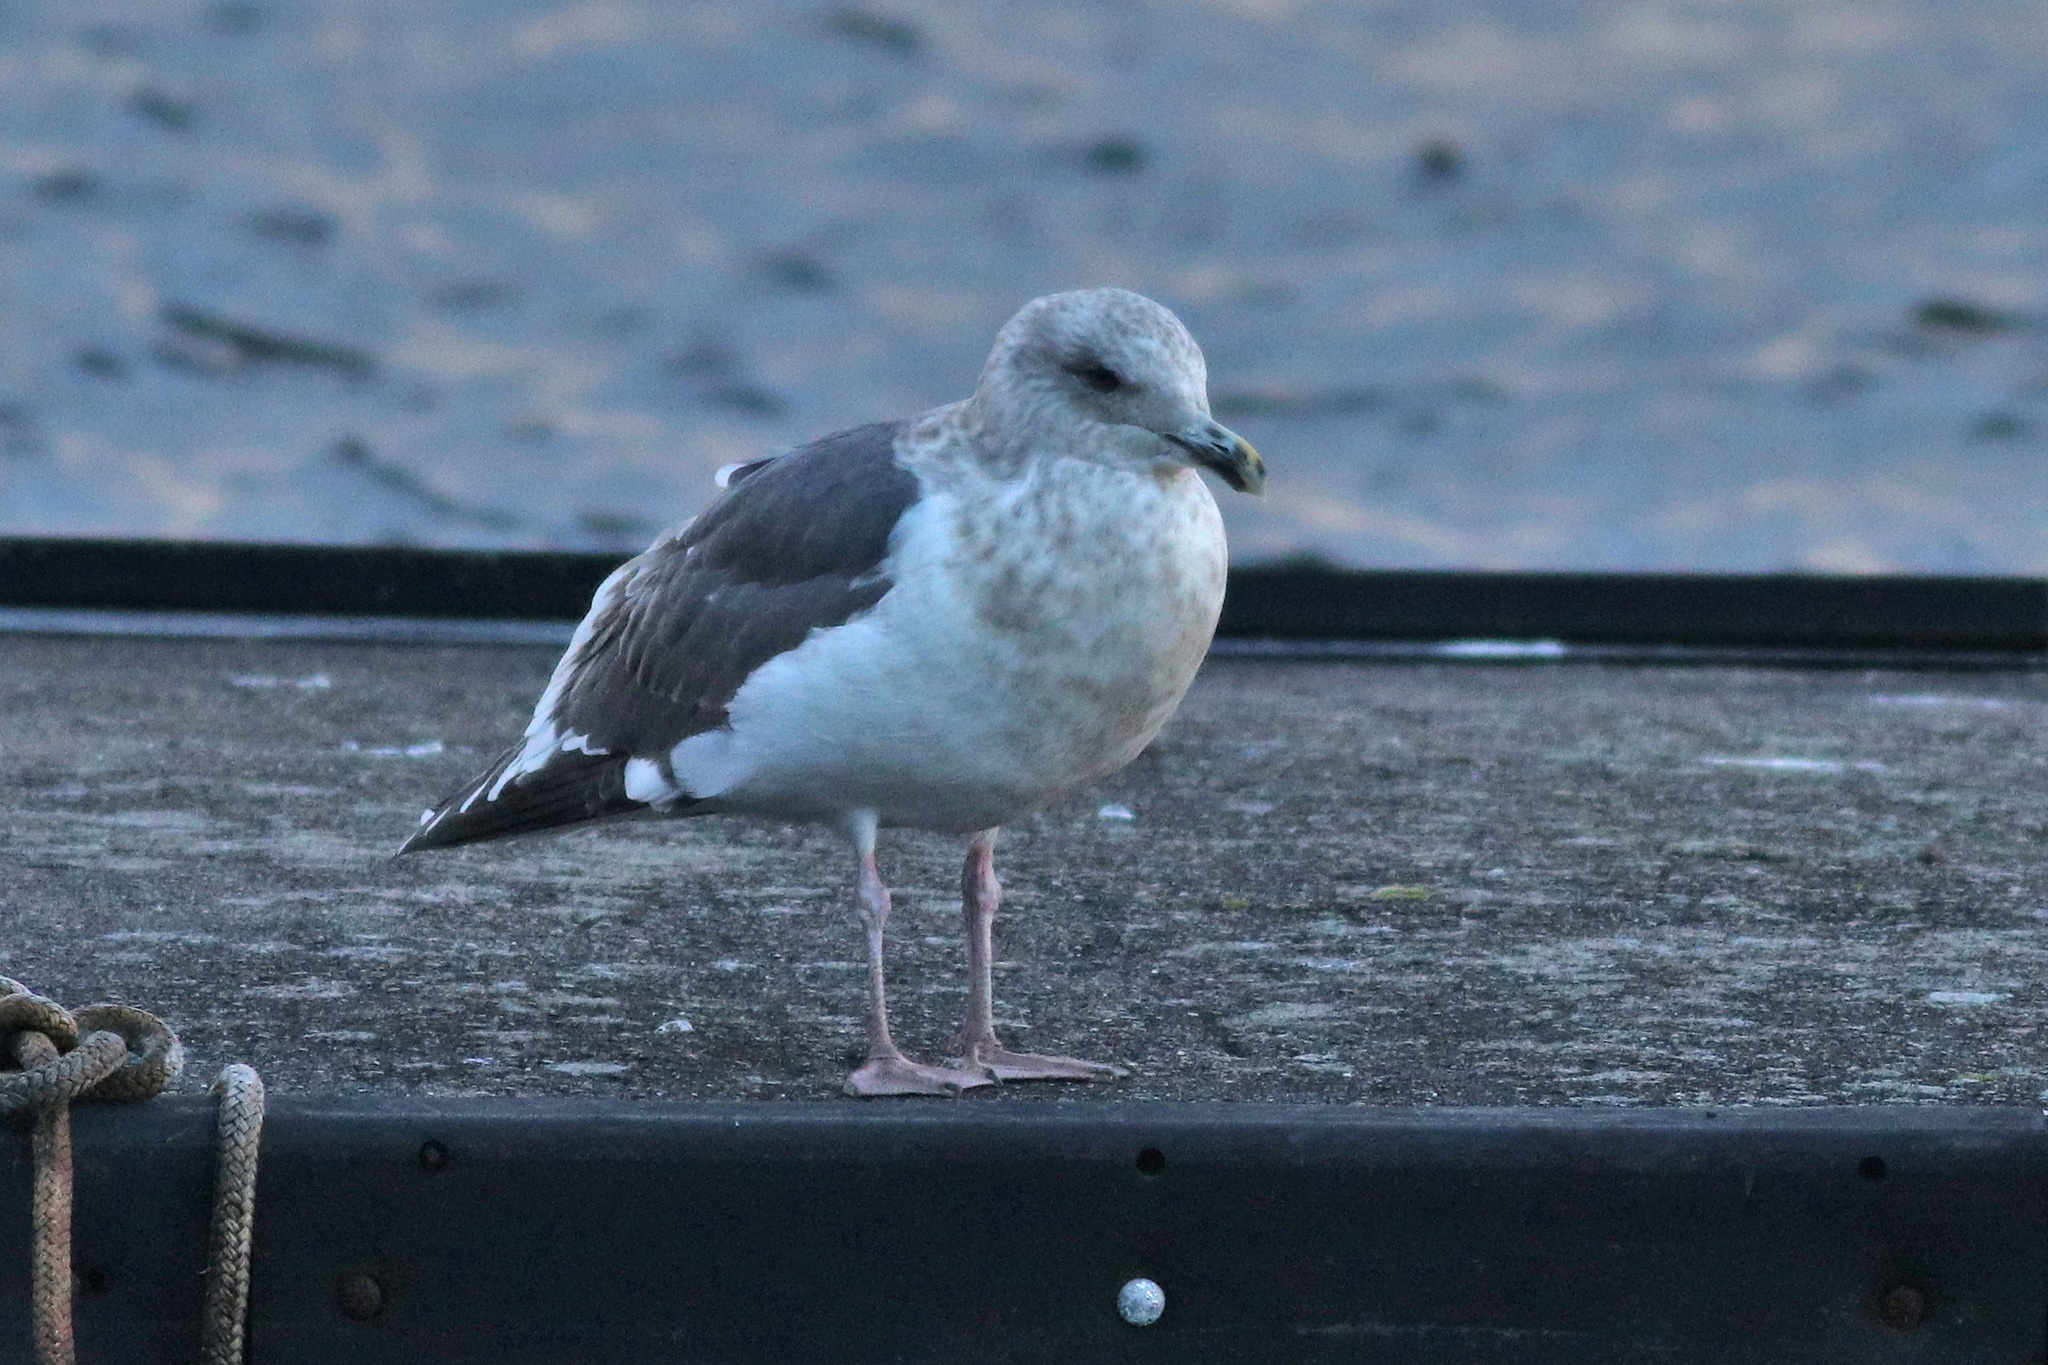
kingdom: Animalia
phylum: Chordata
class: Aves
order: Charadriiformes
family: Laridae
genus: Larus
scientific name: Larus schistisagus
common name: Slaty-backed gull
